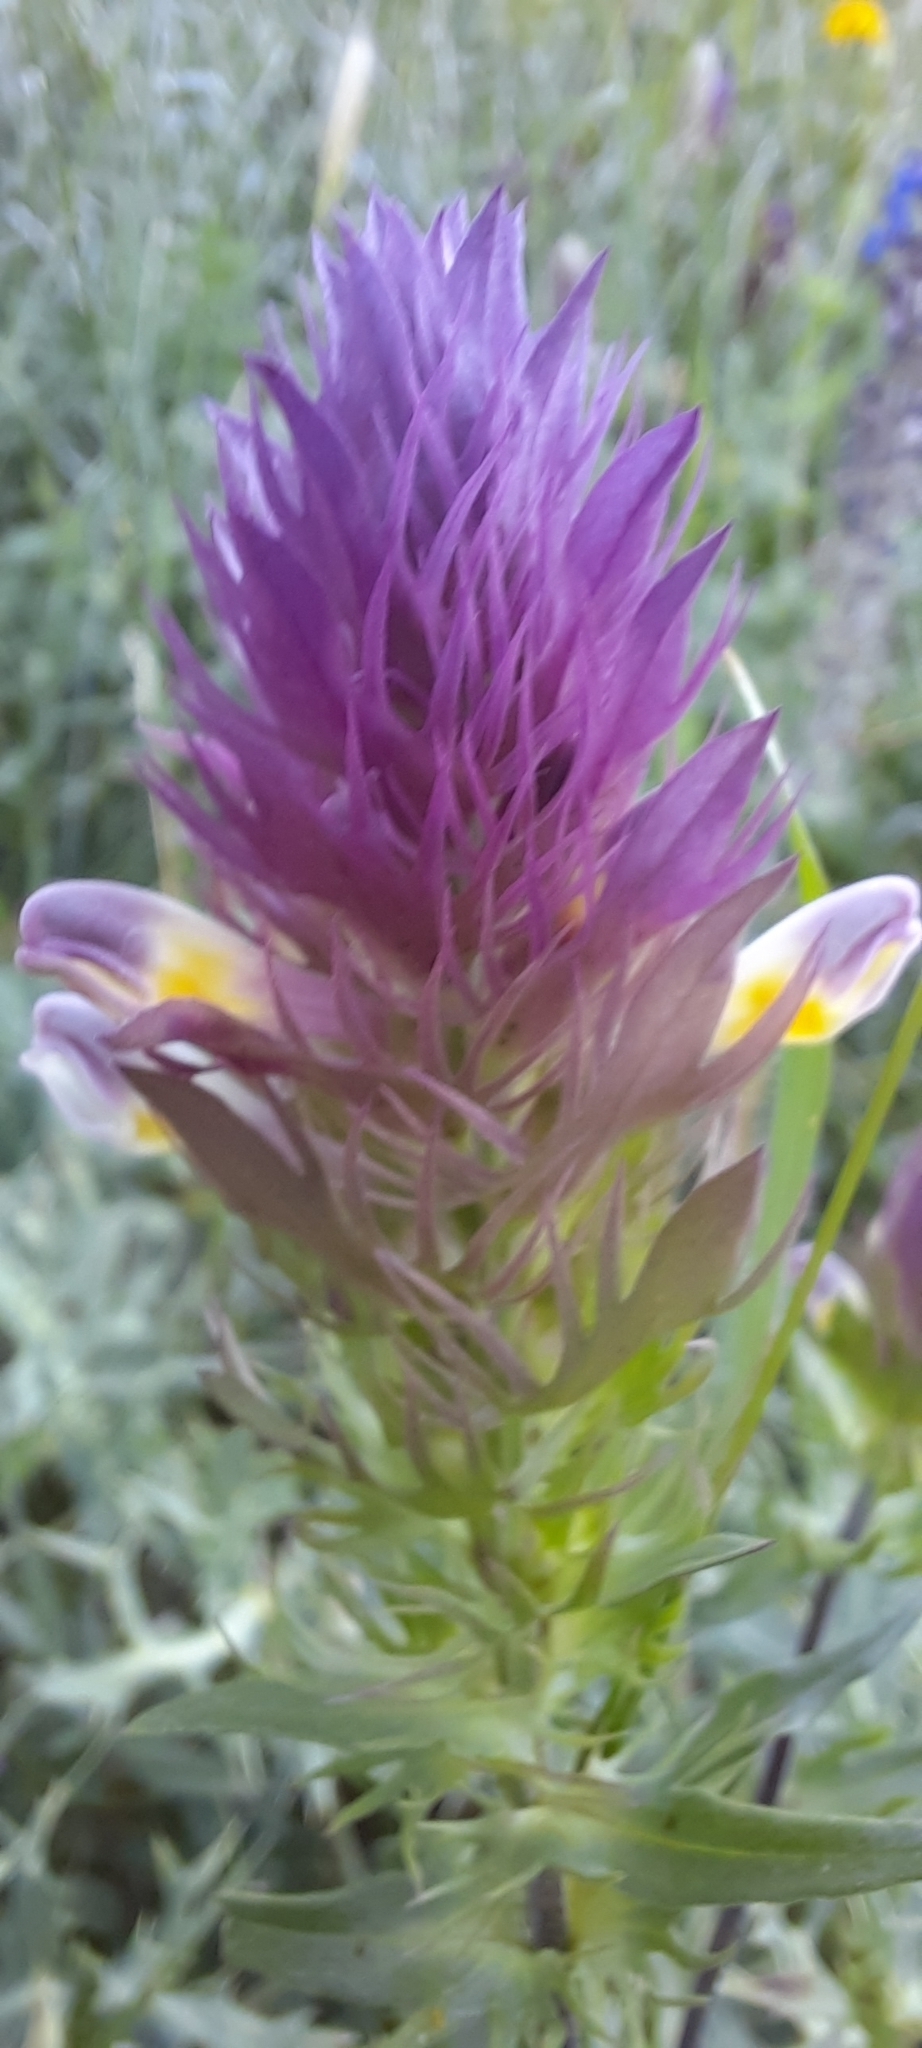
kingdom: Plantae
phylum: Tracheophyta
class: Magnoliopsida
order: Lamiales
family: Orobanchaceae
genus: Melampyrum
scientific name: Melampyrum arvense
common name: Field cow-wheat
